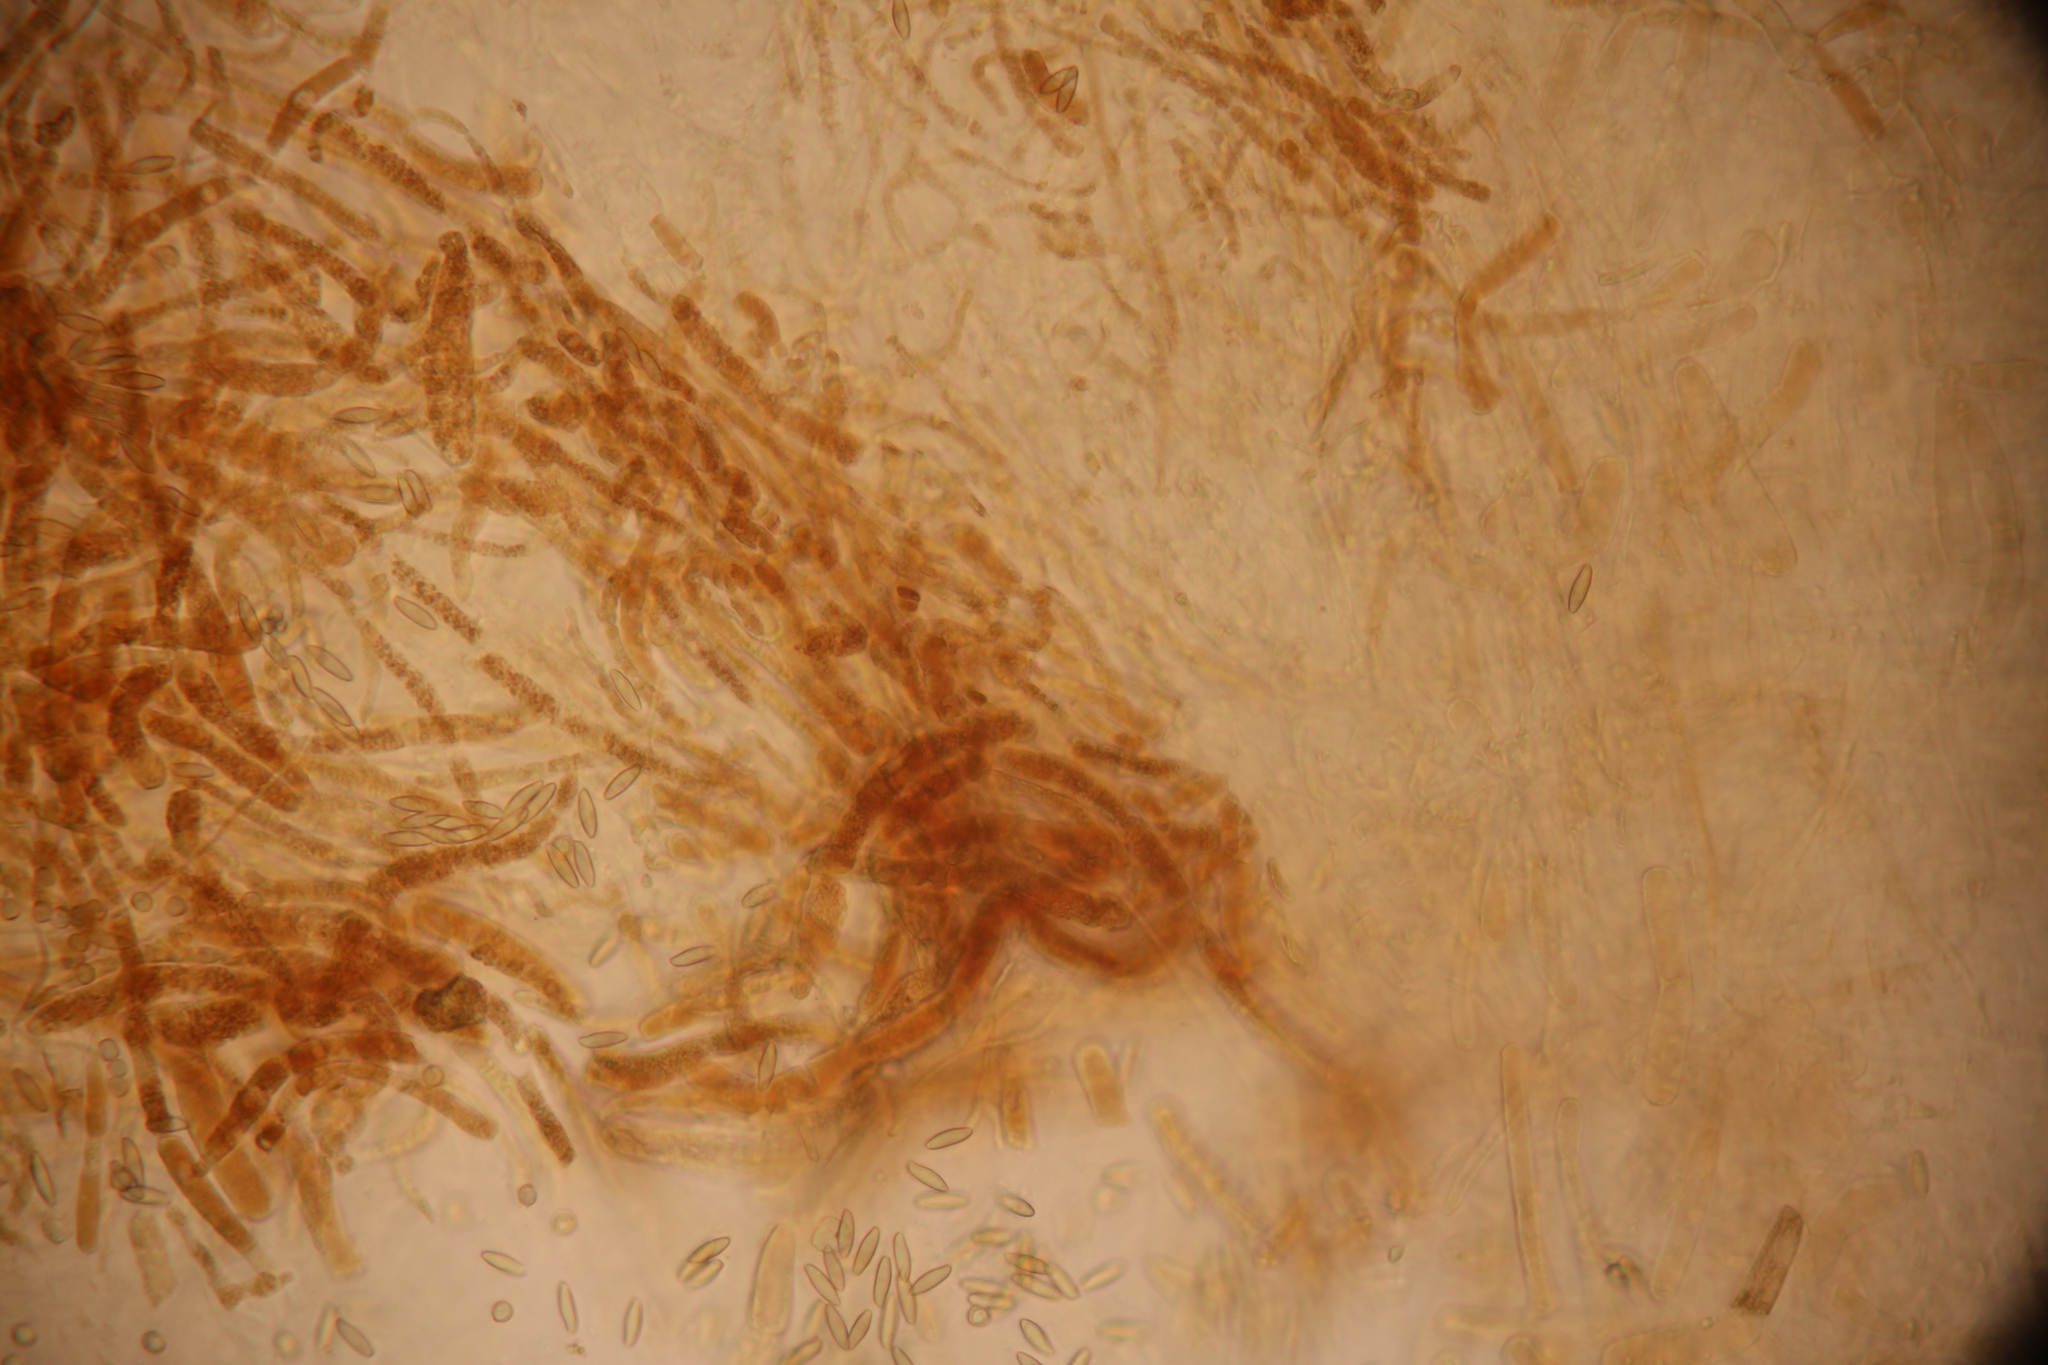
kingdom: Fungi
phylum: Basidiomycota
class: Agaricomycetes
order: Boletales
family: Boletaceae
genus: Leccinum
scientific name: Leccinum piceinum
